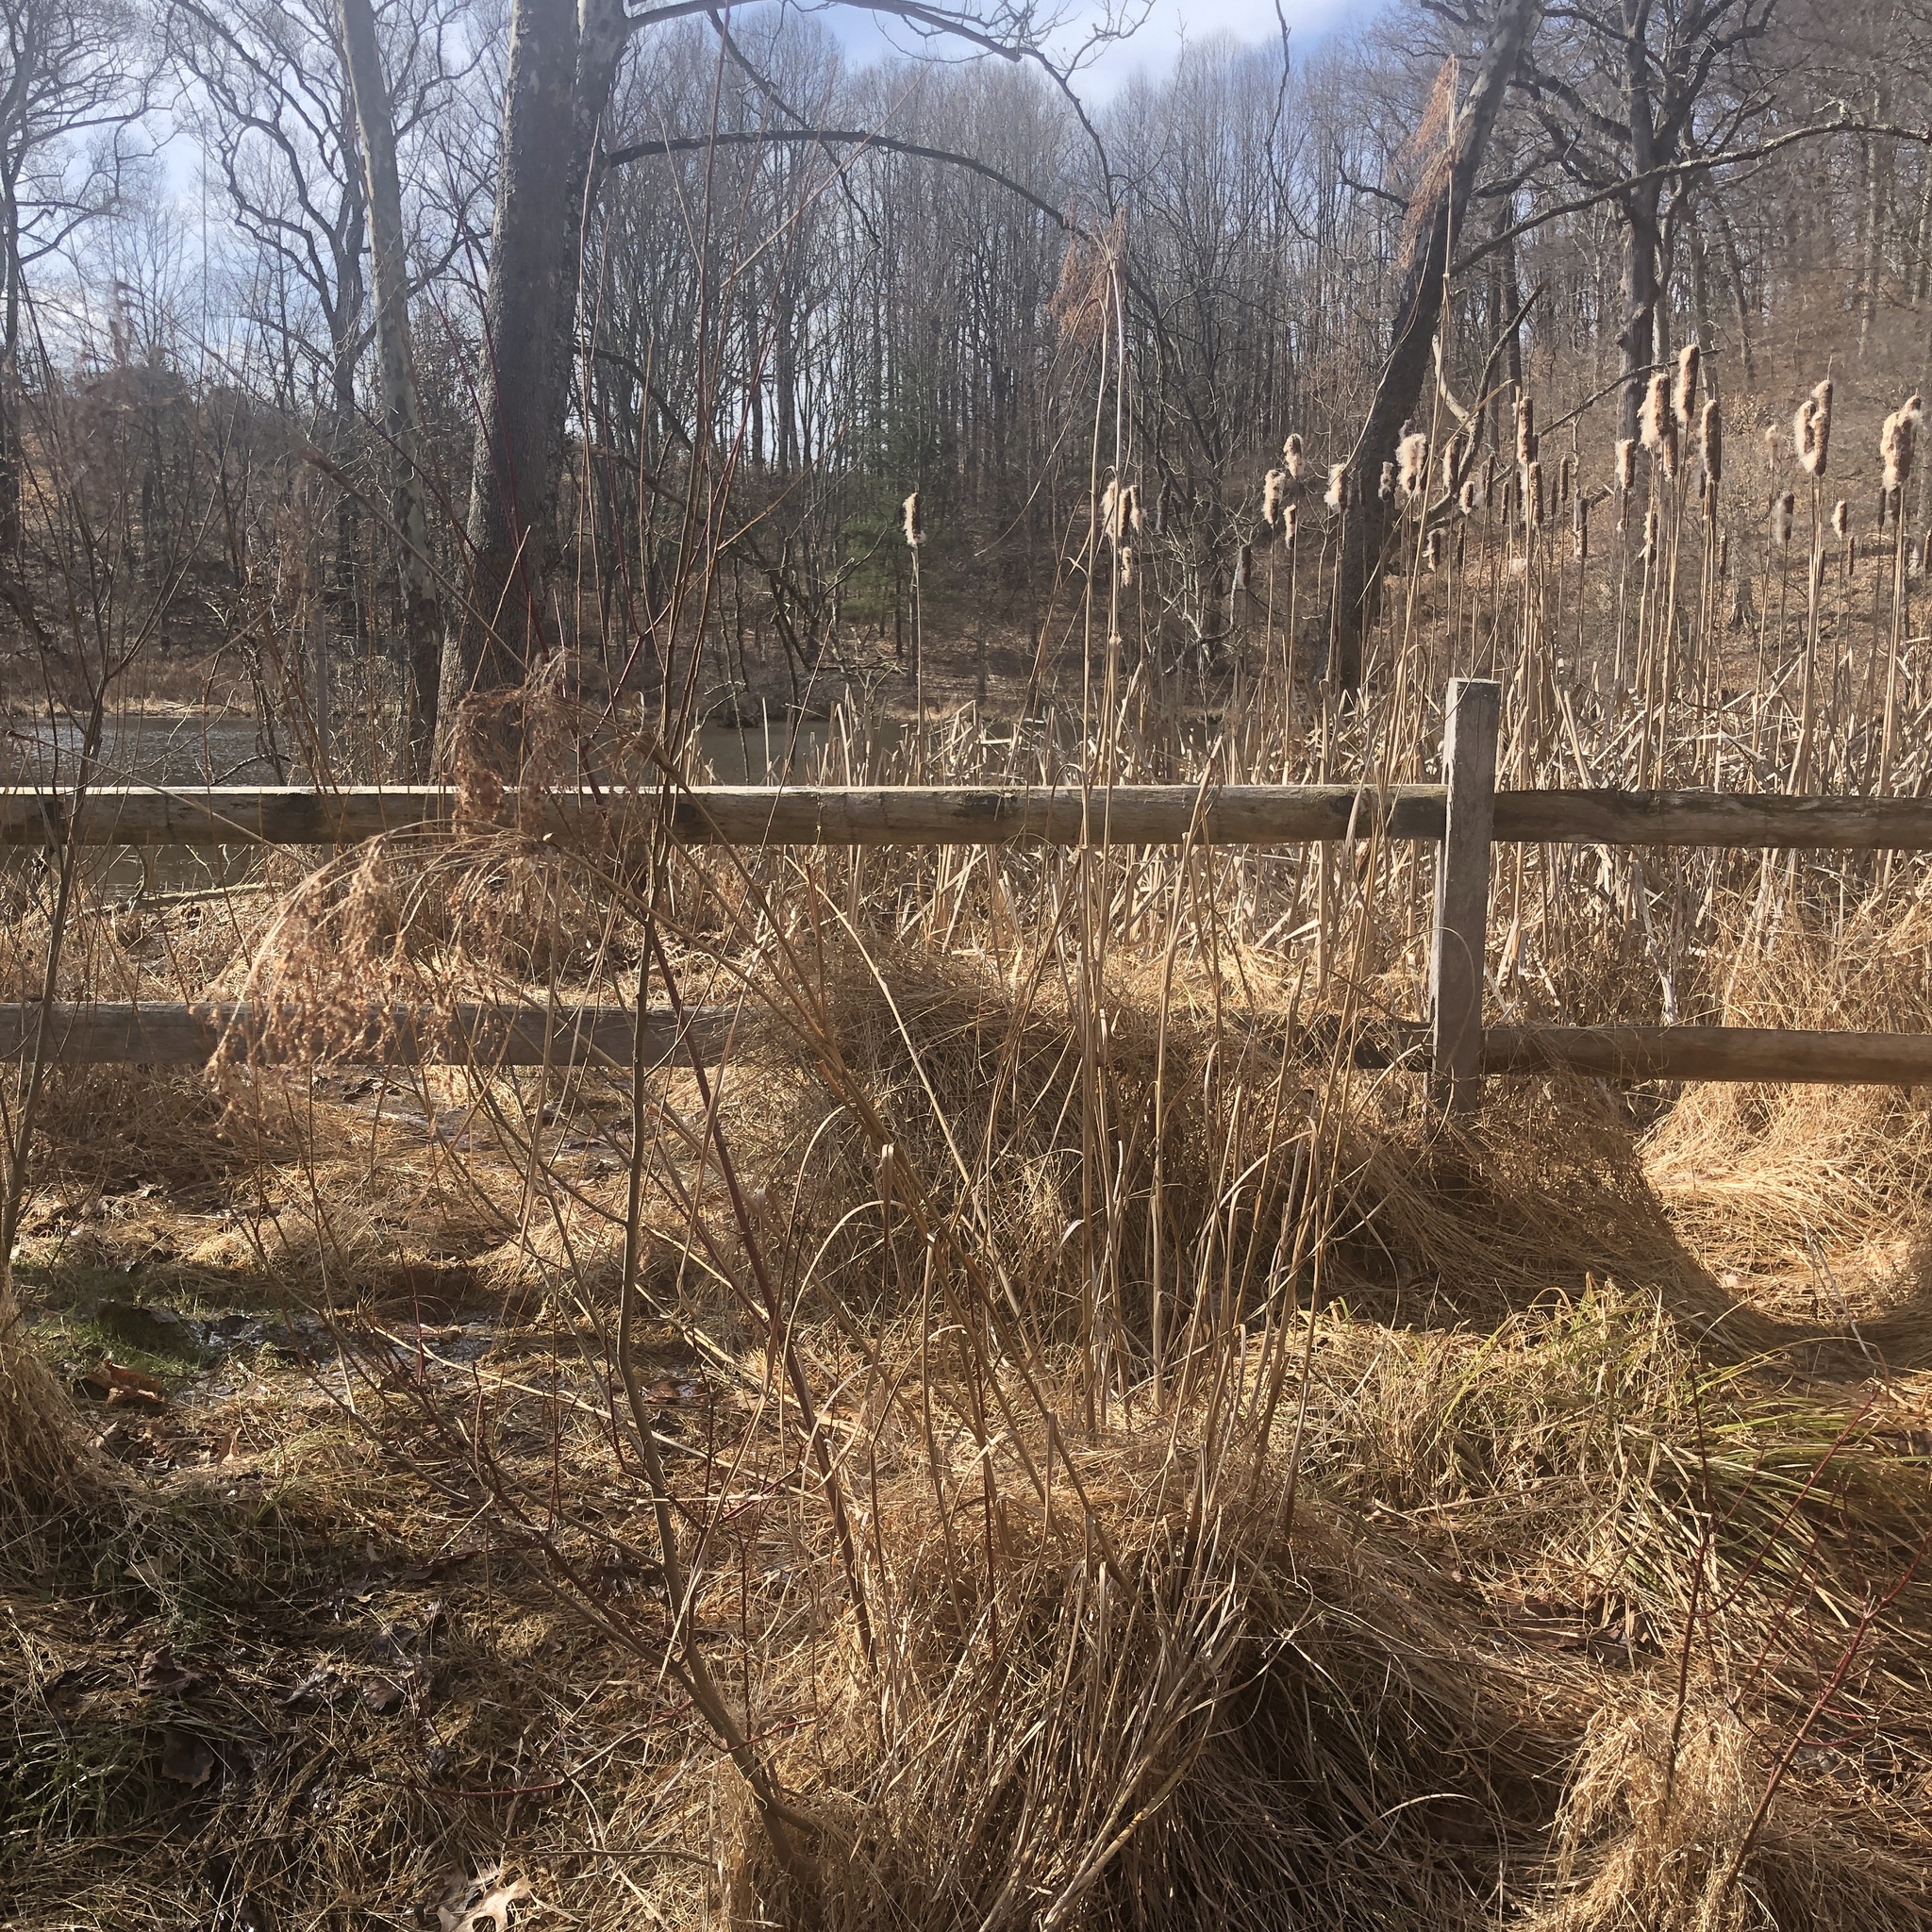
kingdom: Plantae
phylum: Tracheophyta
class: Liliopsida
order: Poales
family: Cyperaceae
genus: Scirpus
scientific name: Scirpus cyperinus
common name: Black-sheathed bulrush
